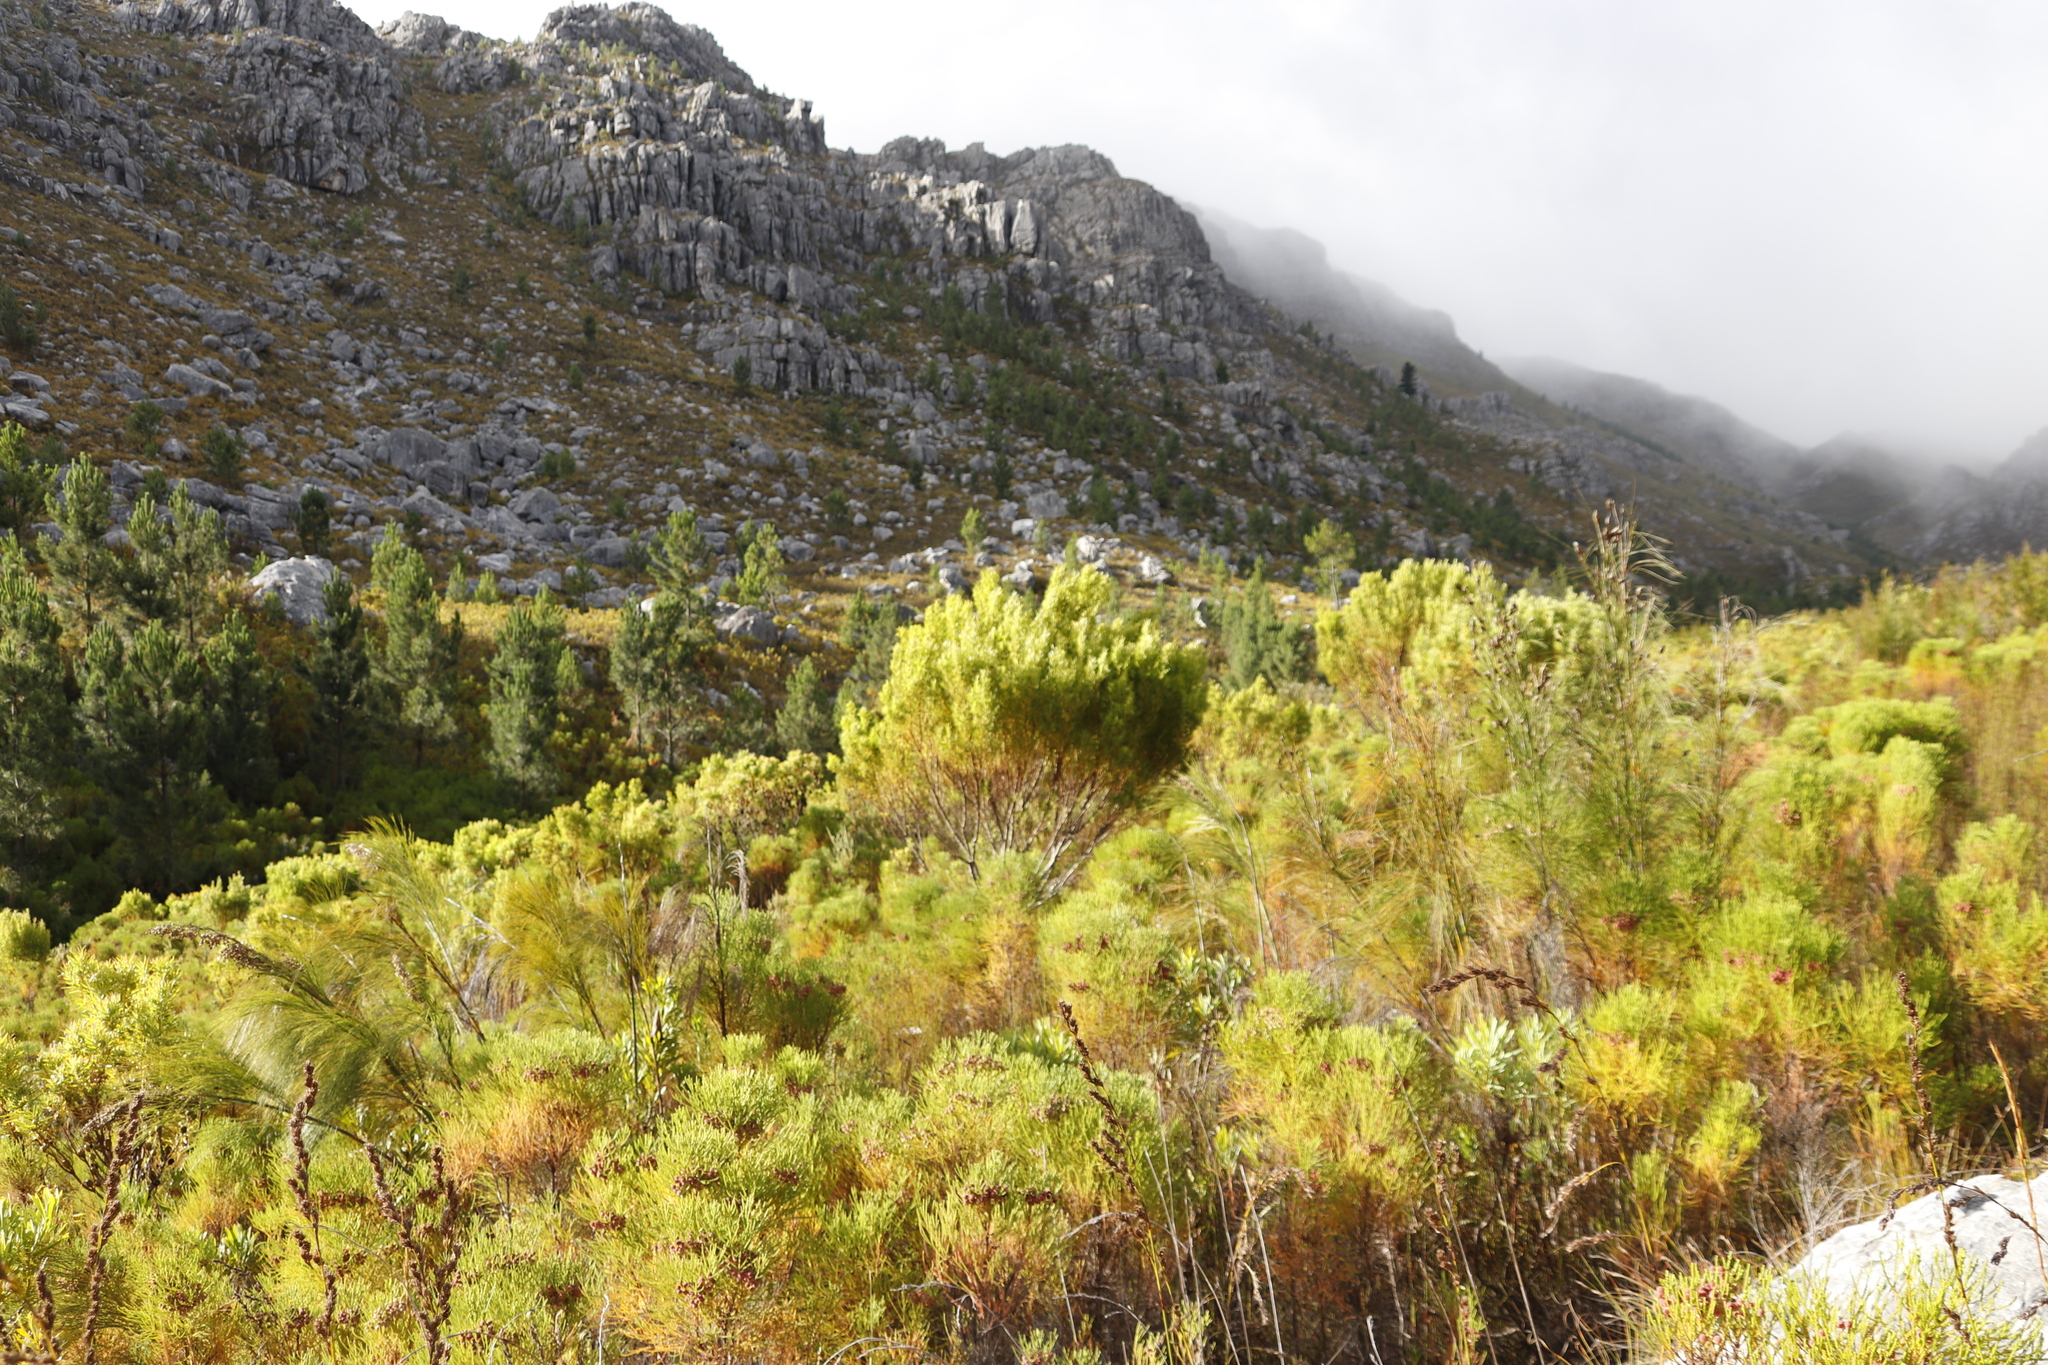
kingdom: Plantae
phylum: Tracheophyta
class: Magnoliopsida
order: Proteales
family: Proteaceae
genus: Leucadendron
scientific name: Leucadendron salicifolium
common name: Common stream conebush
